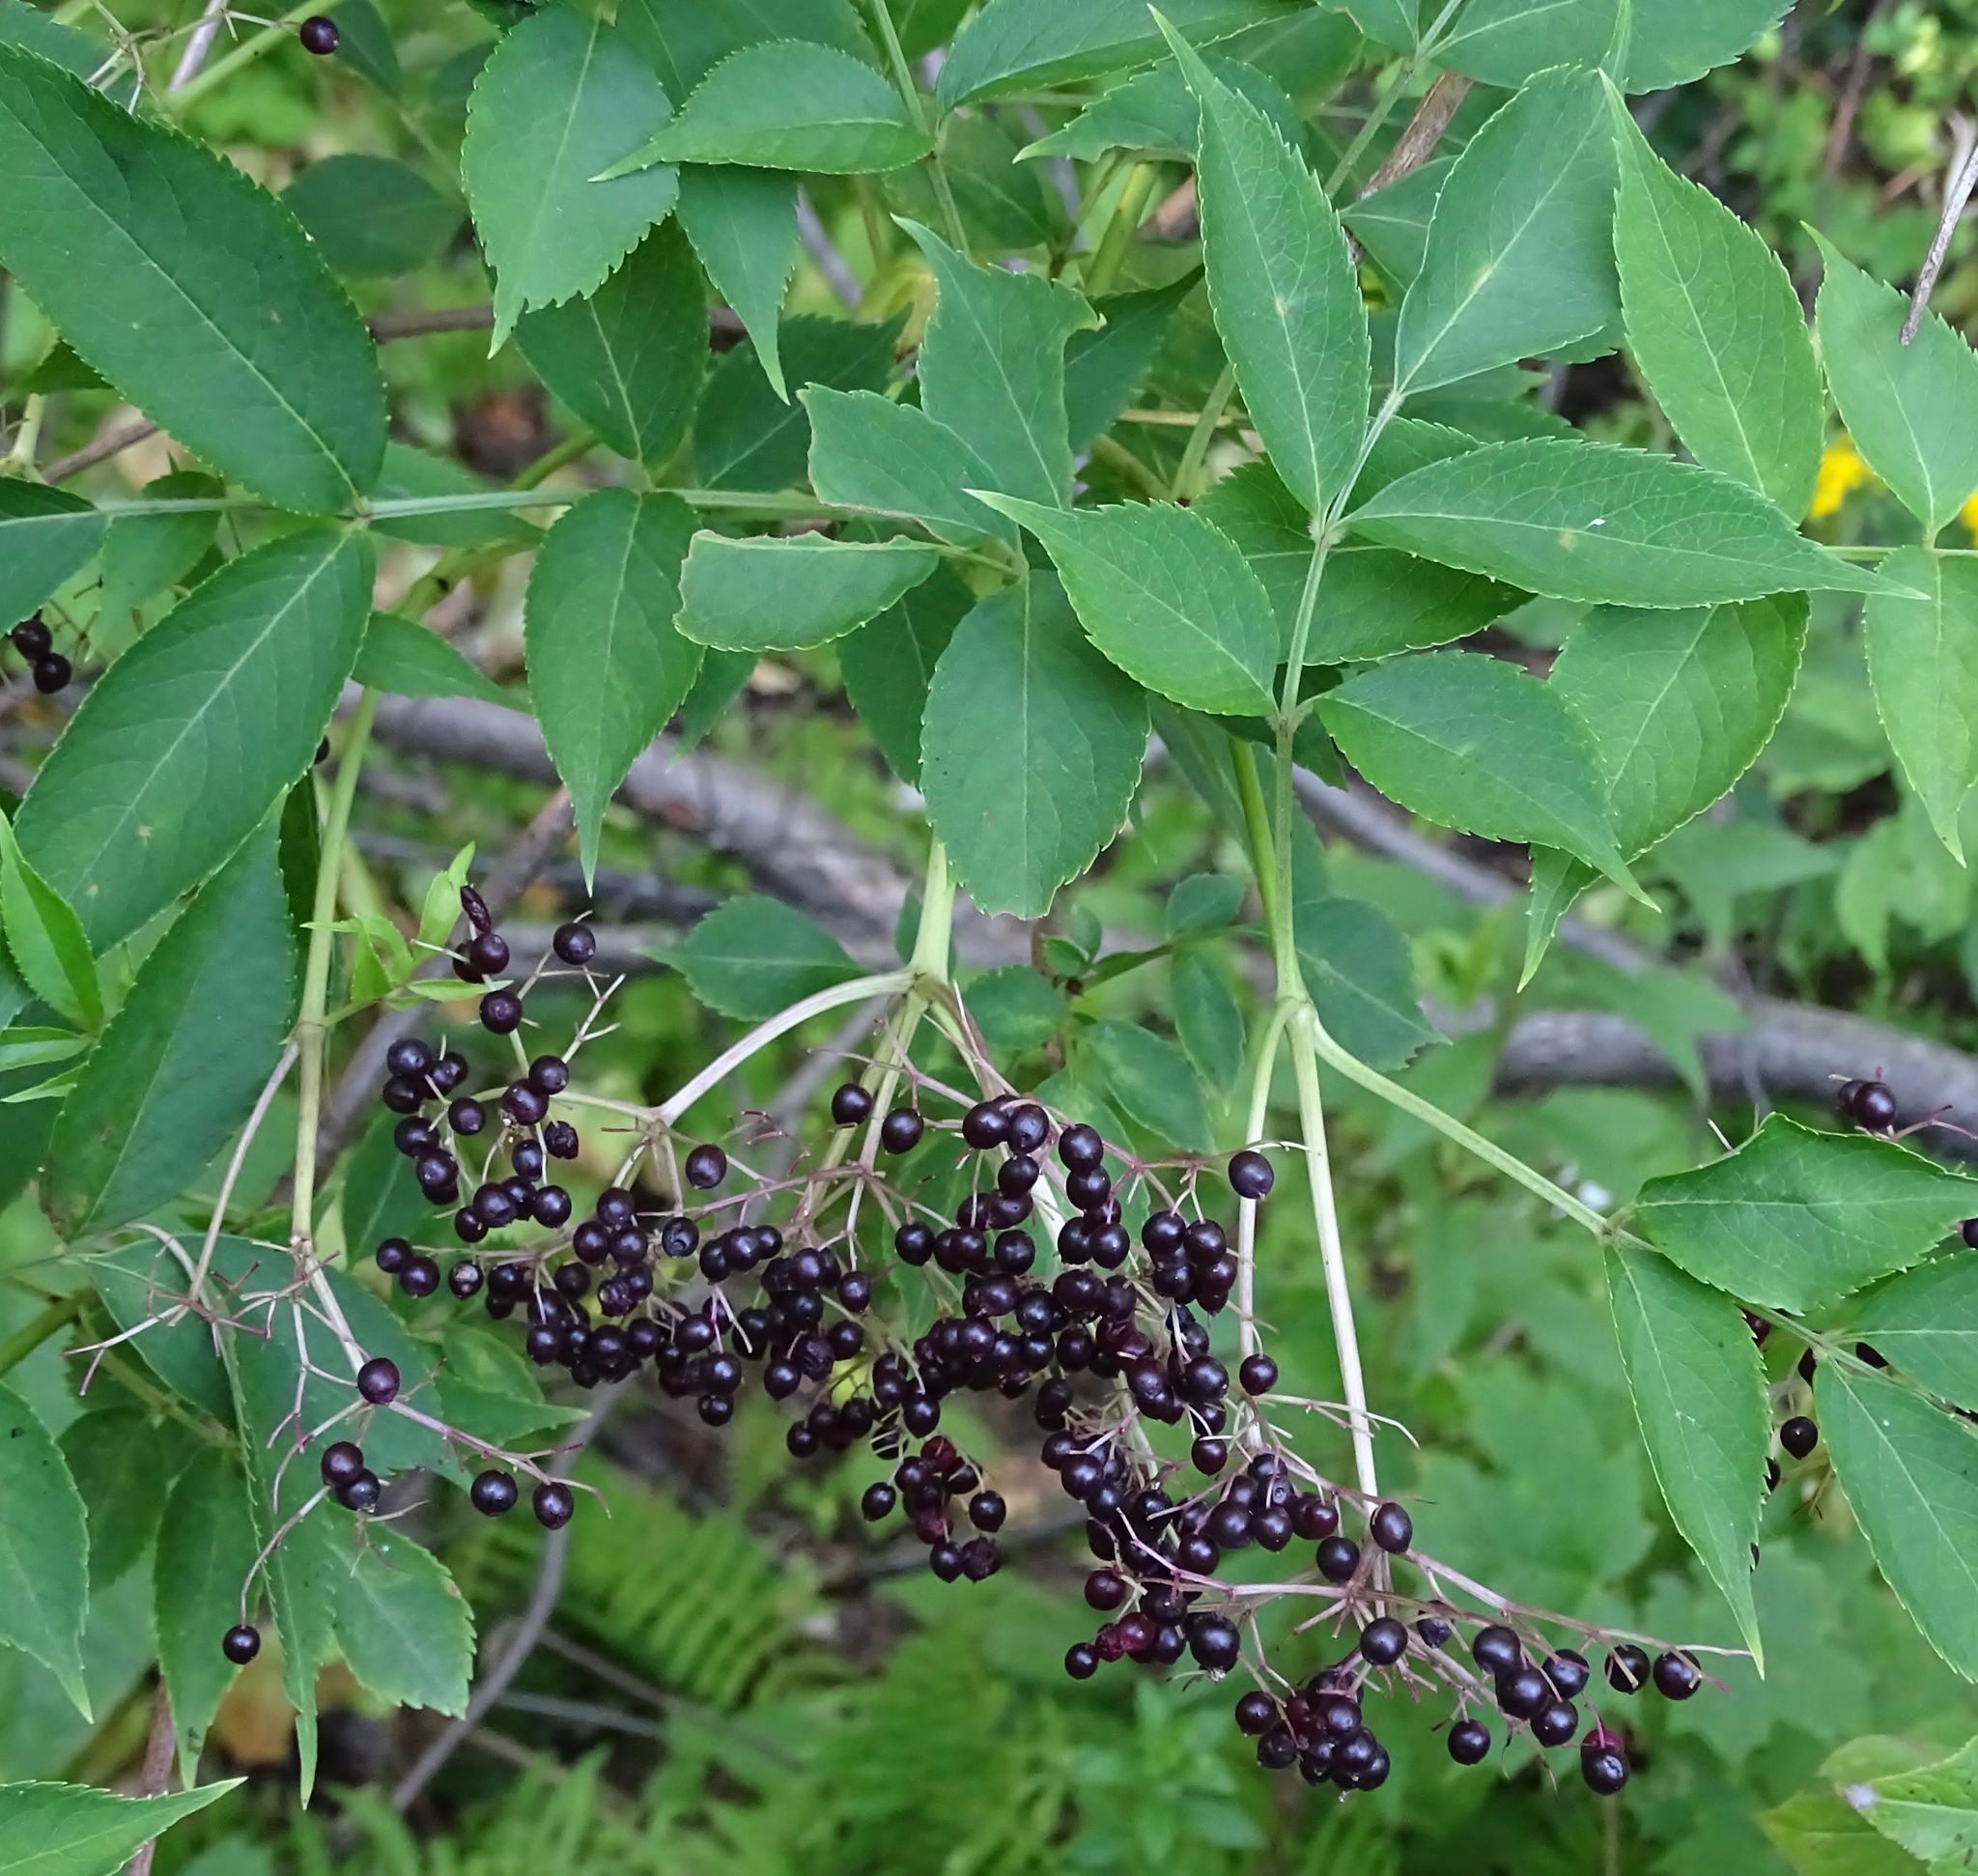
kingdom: Plantae
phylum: Tracheophyta
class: Magnoliopsida
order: Dipsacales
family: Viburnaceae
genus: Sambucus
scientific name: Sambucus canadensis
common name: American elder
